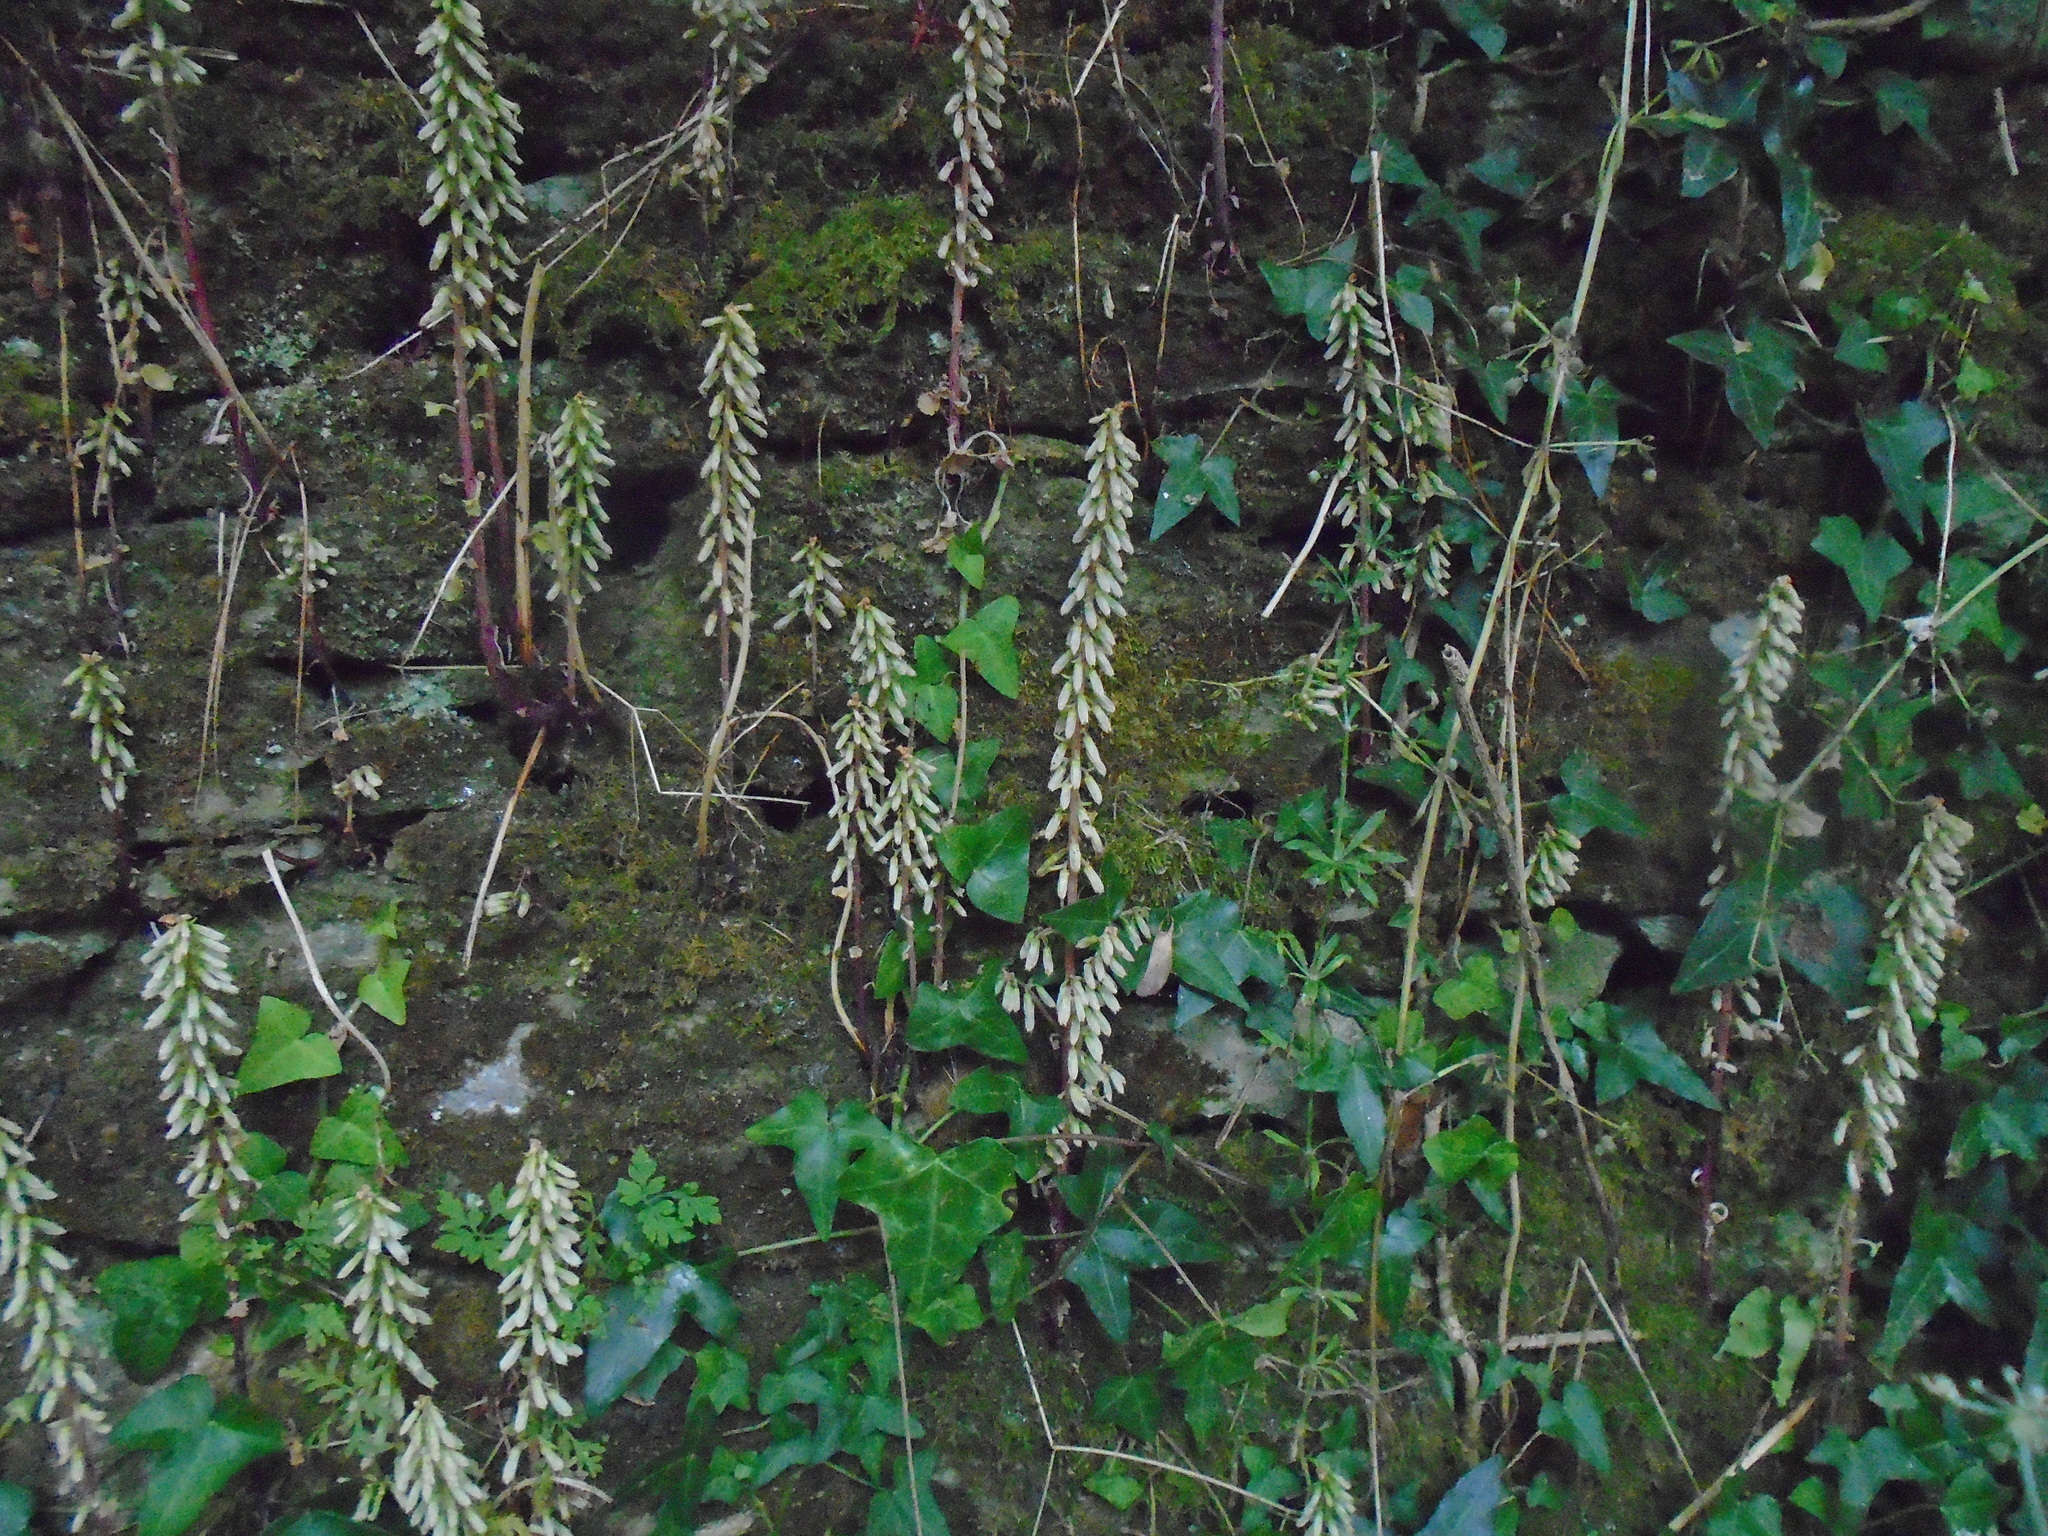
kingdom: Plantae
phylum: Tracheophyta
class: Magnoliopsida
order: Saxifragales
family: Crassulaceae
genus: Umbilicus
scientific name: Umbilicus rupestris
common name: Navelwort
